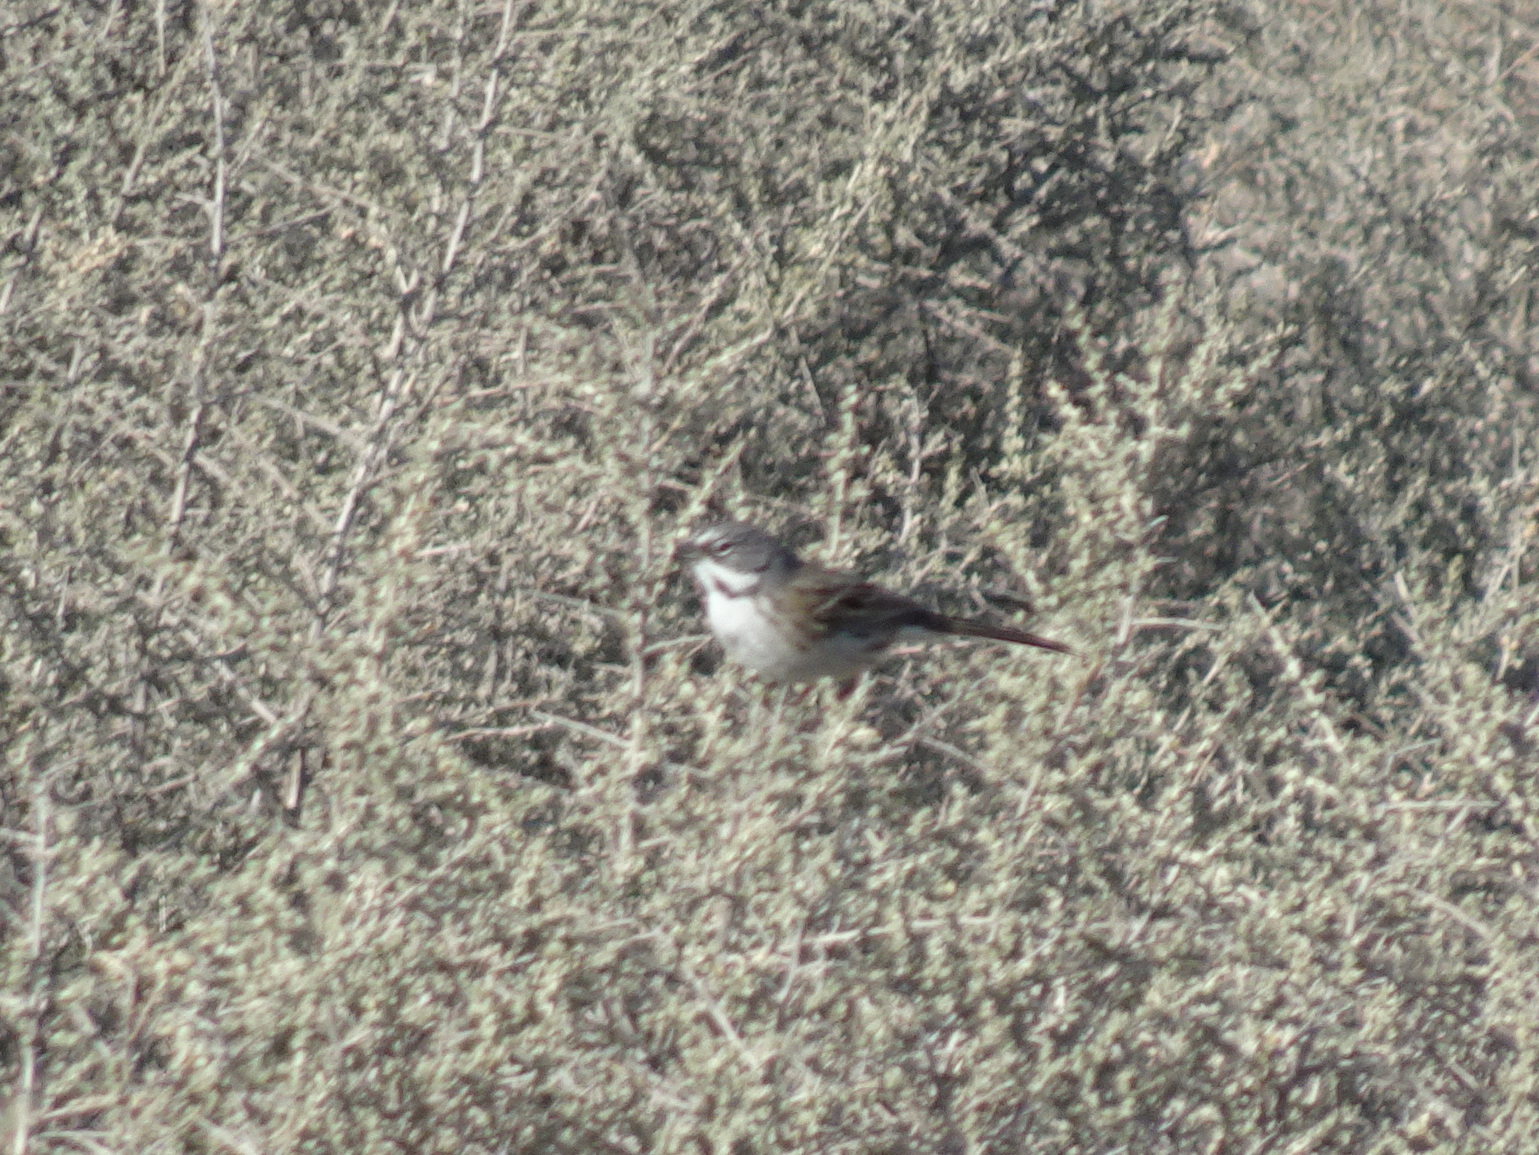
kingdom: Animalia
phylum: Chordata
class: Aves
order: Passeriformes
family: Passerellidae
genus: Artemisiospiza
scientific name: Artemisiospiza belli
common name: Bell's sparrow
